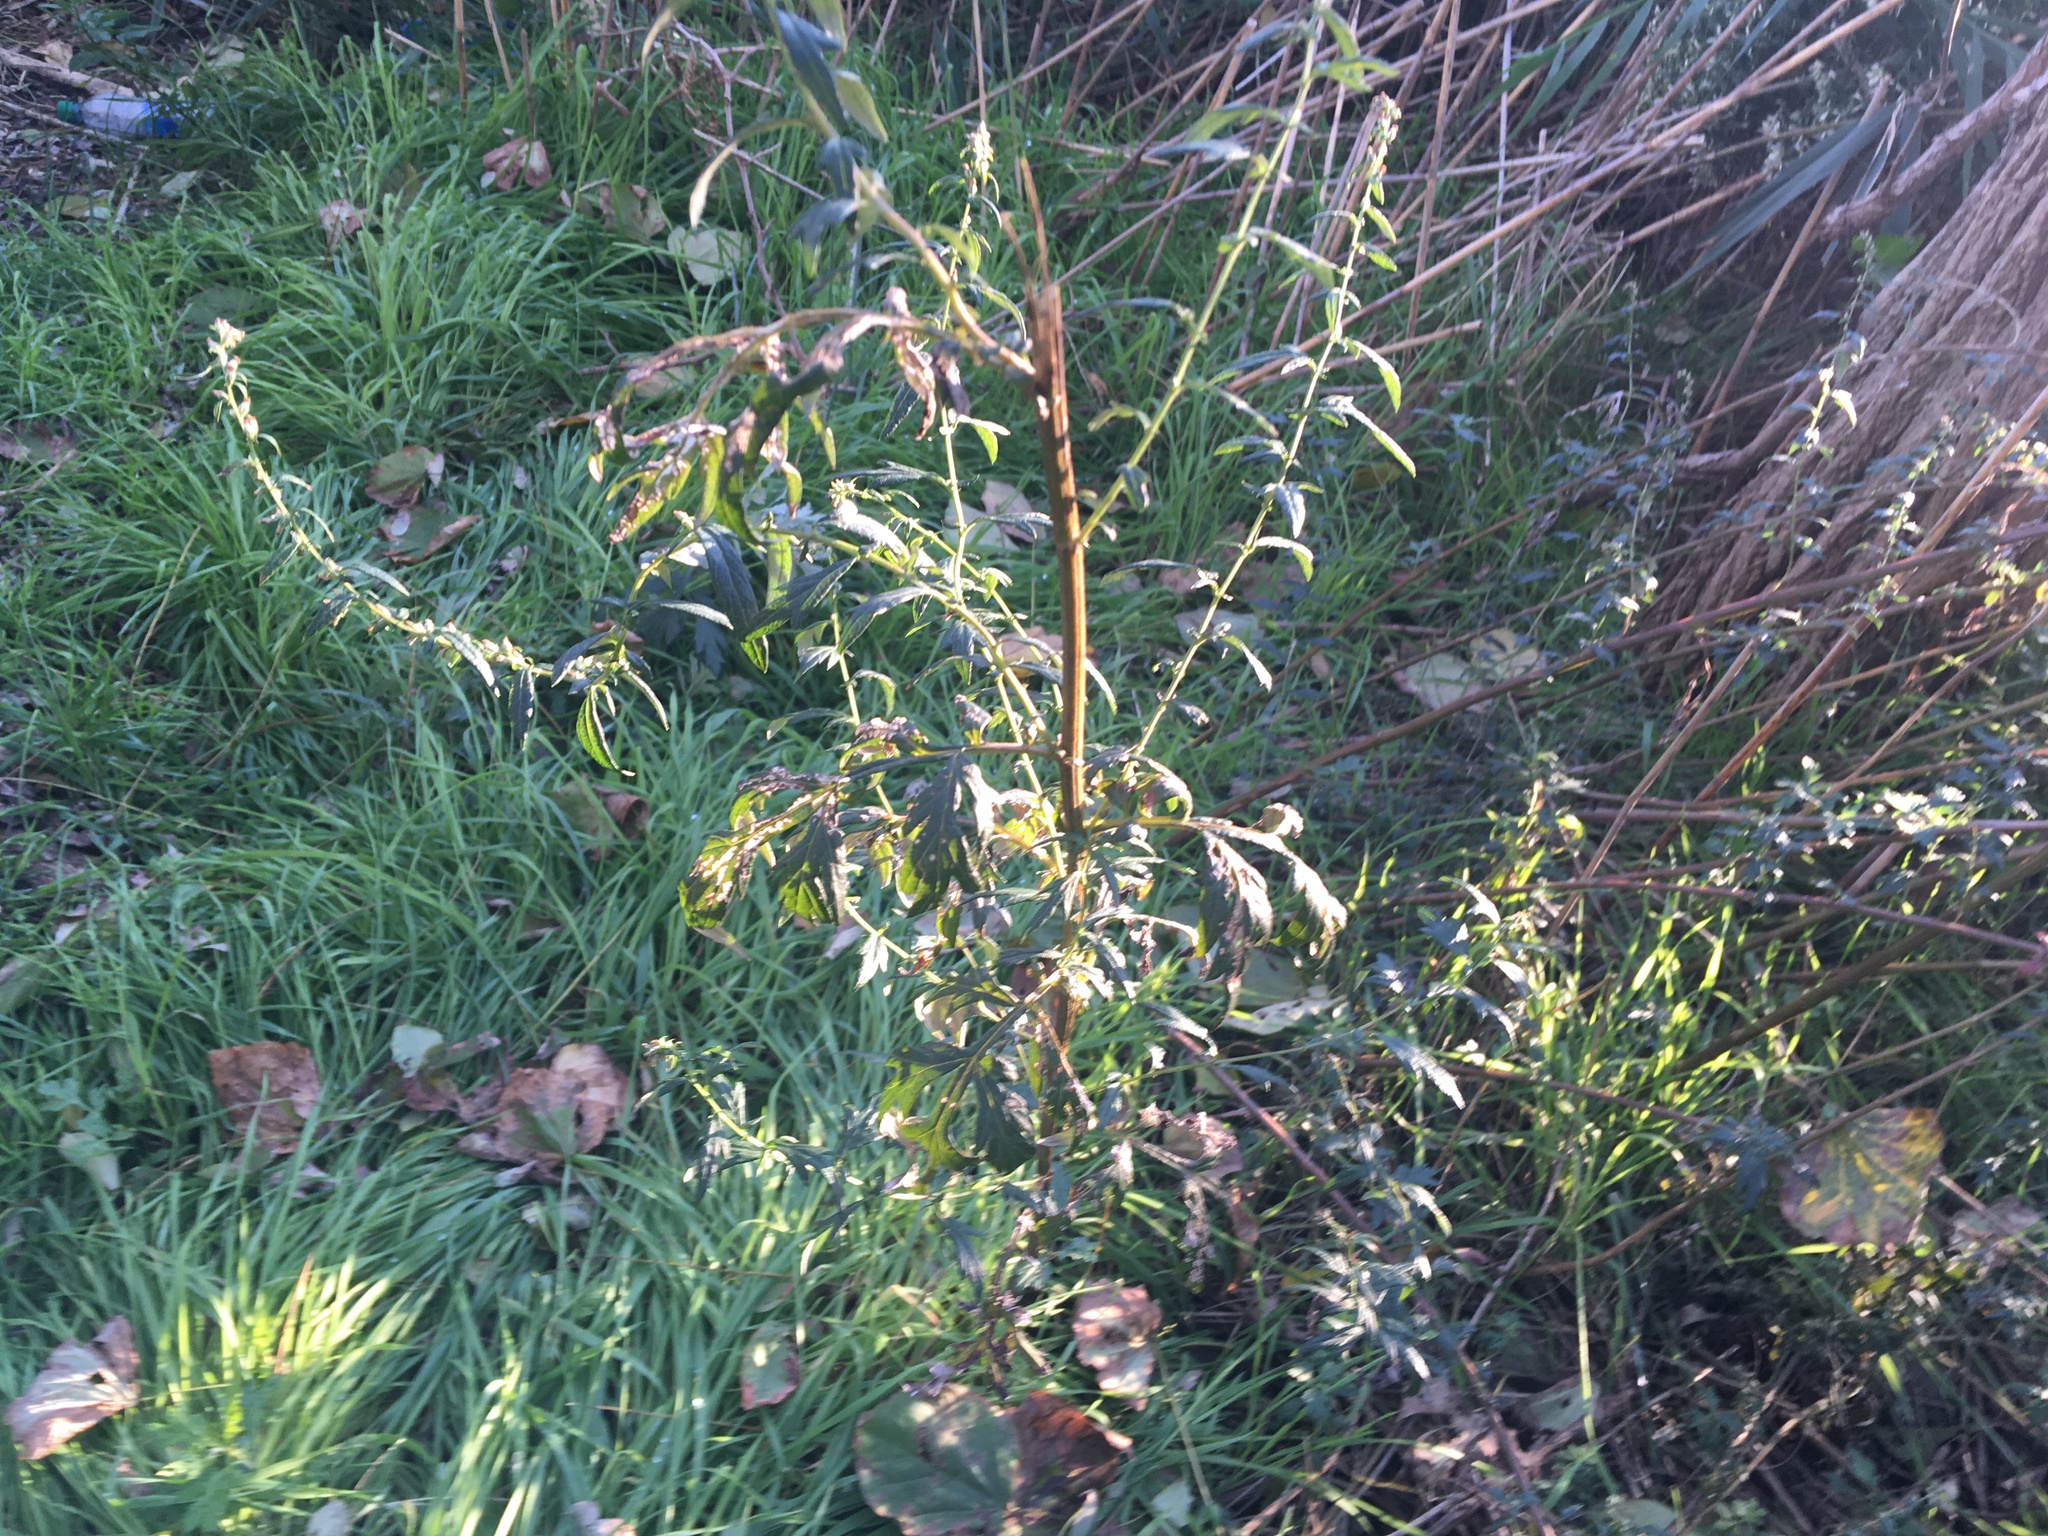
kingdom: Plantae
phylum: Tracheophyta
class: Magnoliopsida
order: Asterales
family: Asteraceae
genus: Artemisia
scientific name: Artemisia vulgaris
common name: Mugwort
